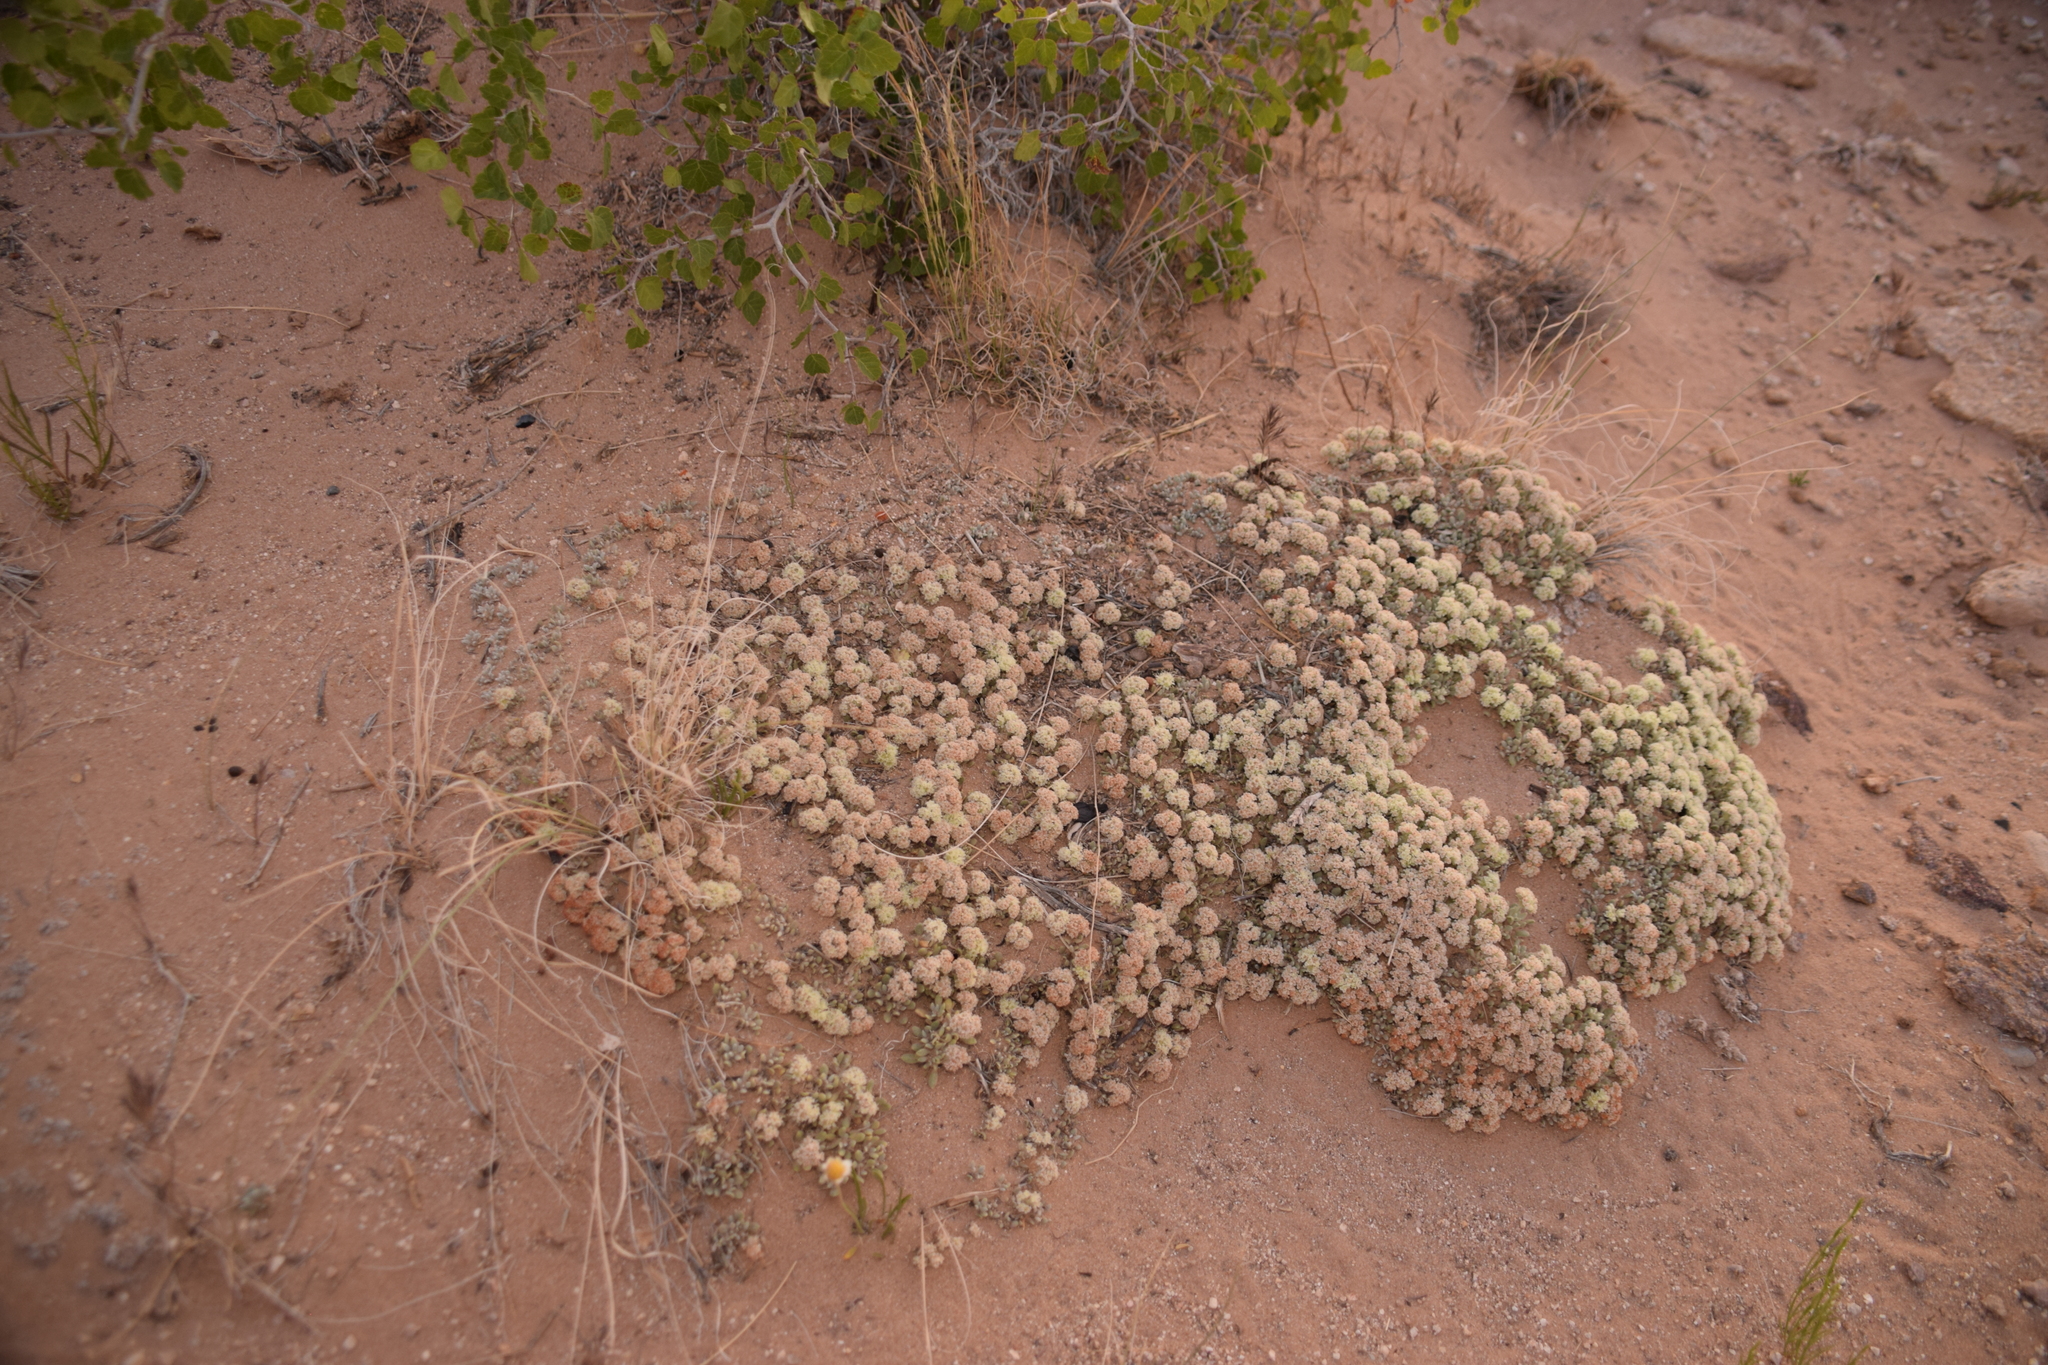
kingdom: Plantae
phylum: Tracheophyta
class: Magnoliopsida
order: Caryophyllales
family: Polygonaceae
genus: Eriogonum
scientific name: Eriogonum shockleyi
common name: Shockley's wild buckwheat
